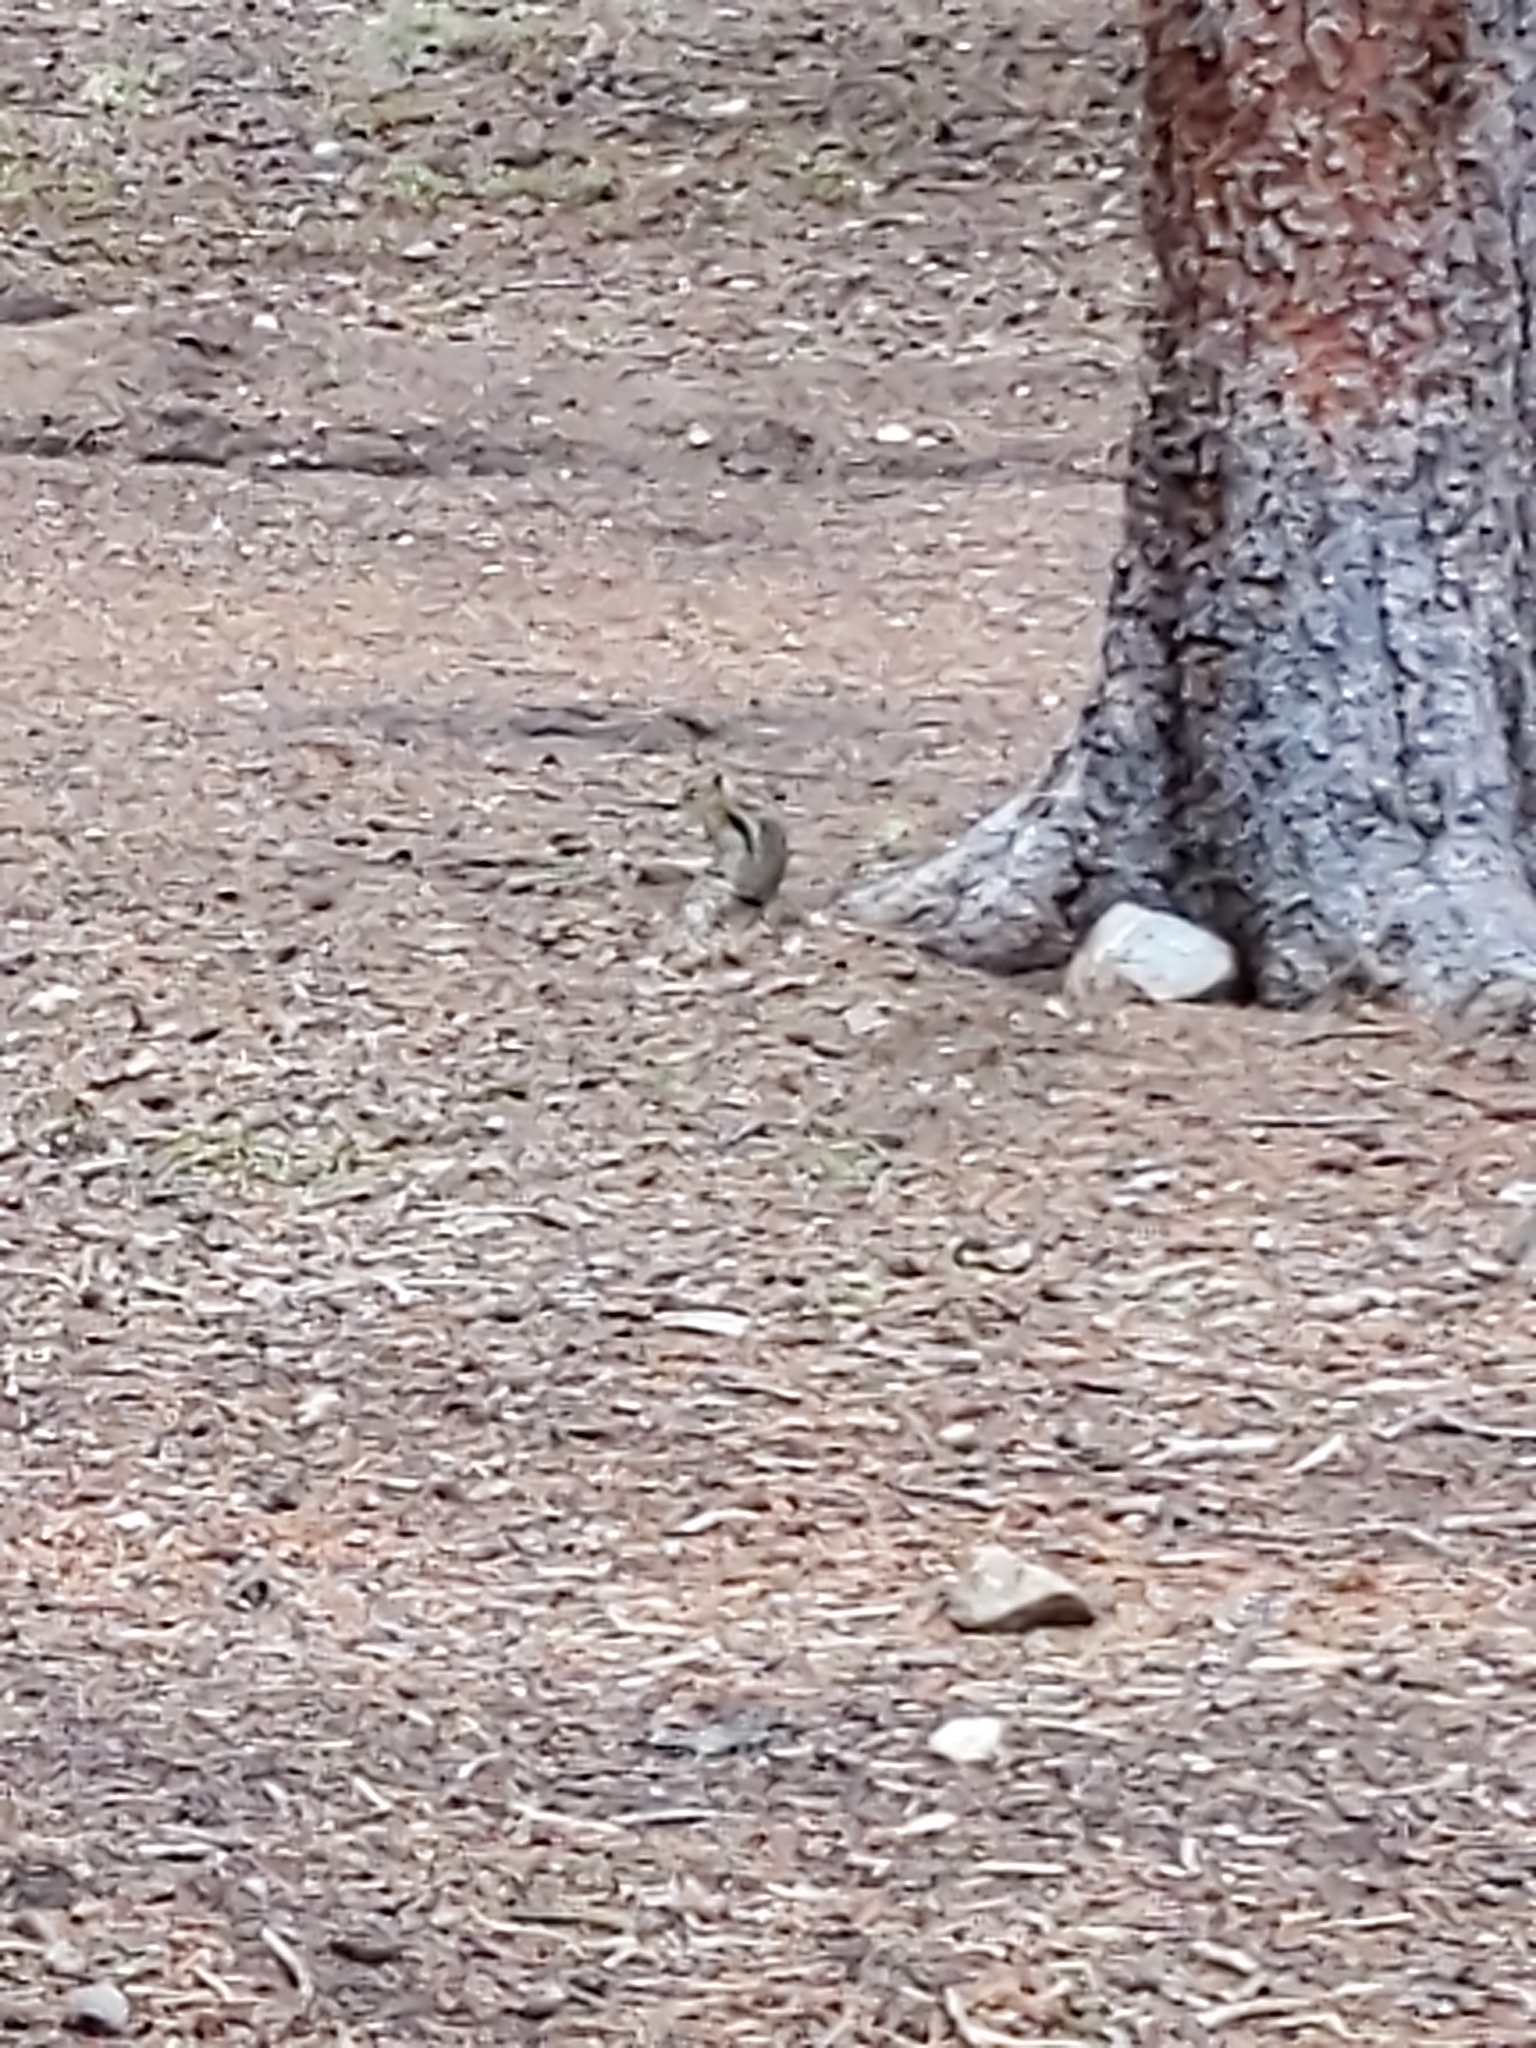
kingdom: Animalia
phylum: Chordata
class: Mammalia
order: Rodentia
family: Sciuridae
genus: Callospermophilus
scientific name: Callospermophilus lateralis
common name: Golden-mantled ground squirrel
